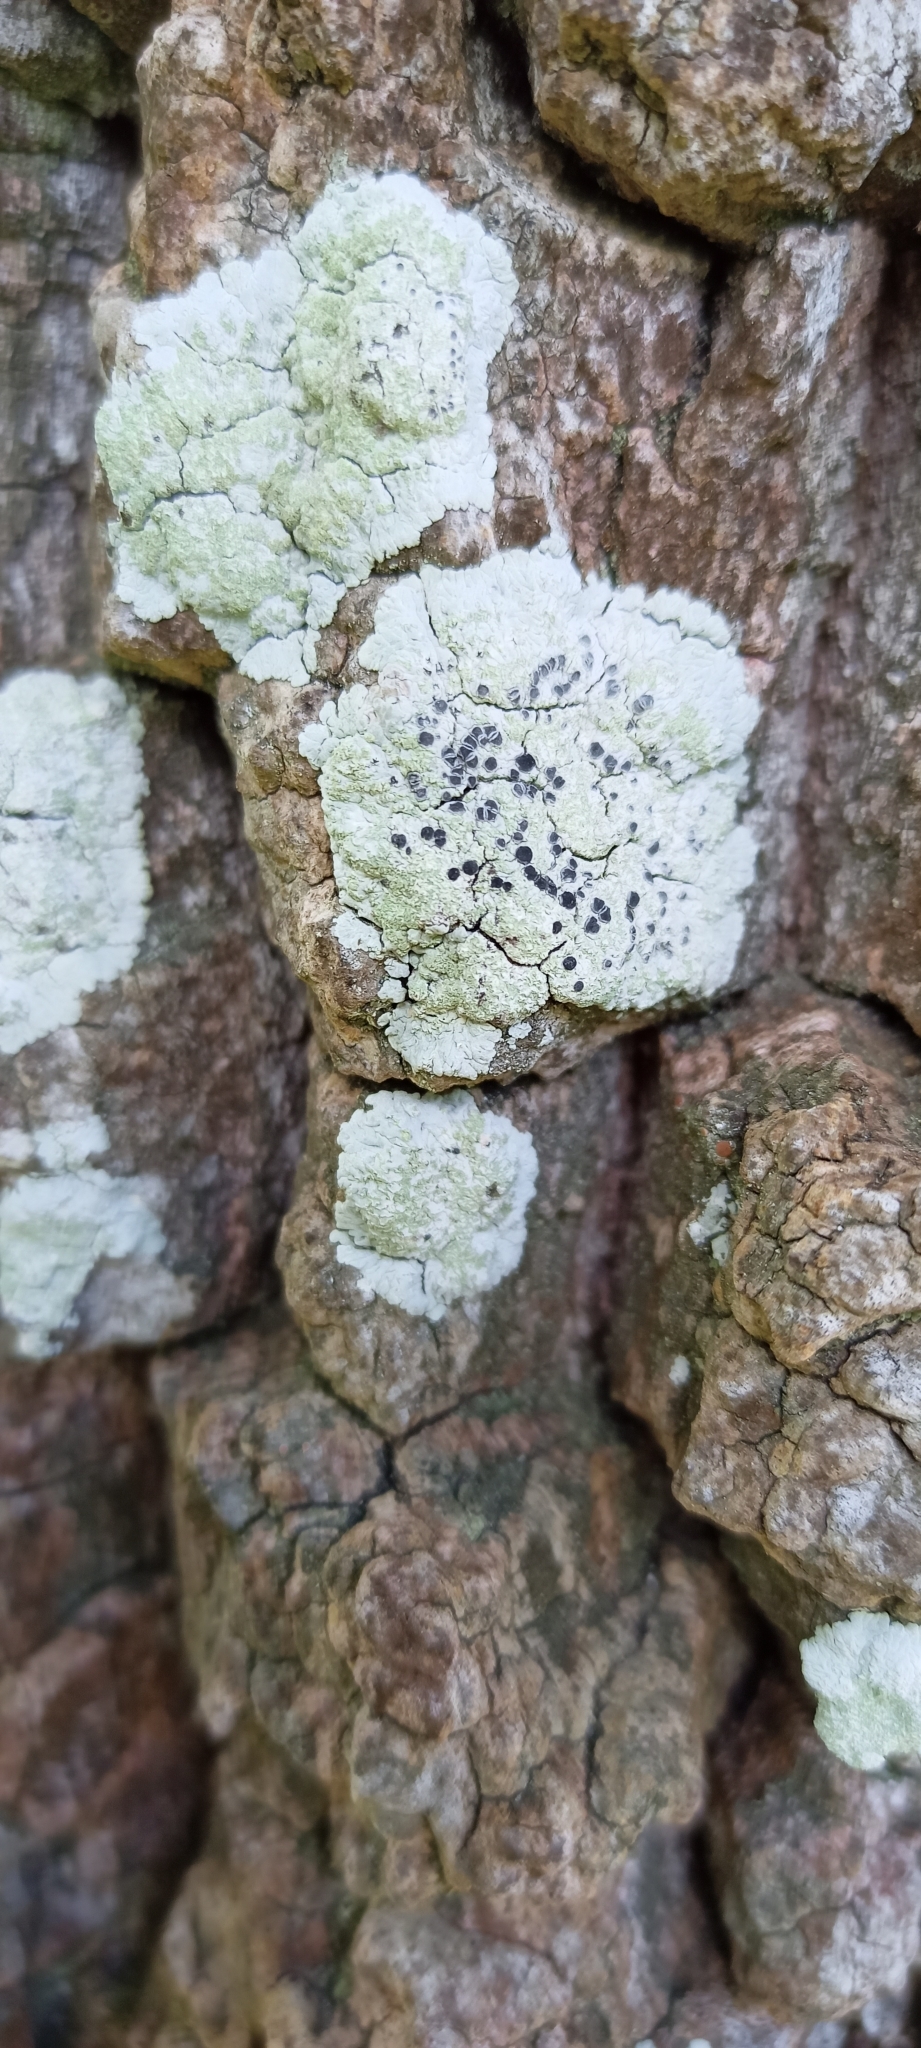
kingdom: Fungi
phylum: Ascomycota
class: Lecanoromycetes
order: Caliciales
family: Caliciaceae
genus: Diploicia
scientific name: Diploicia canescens
